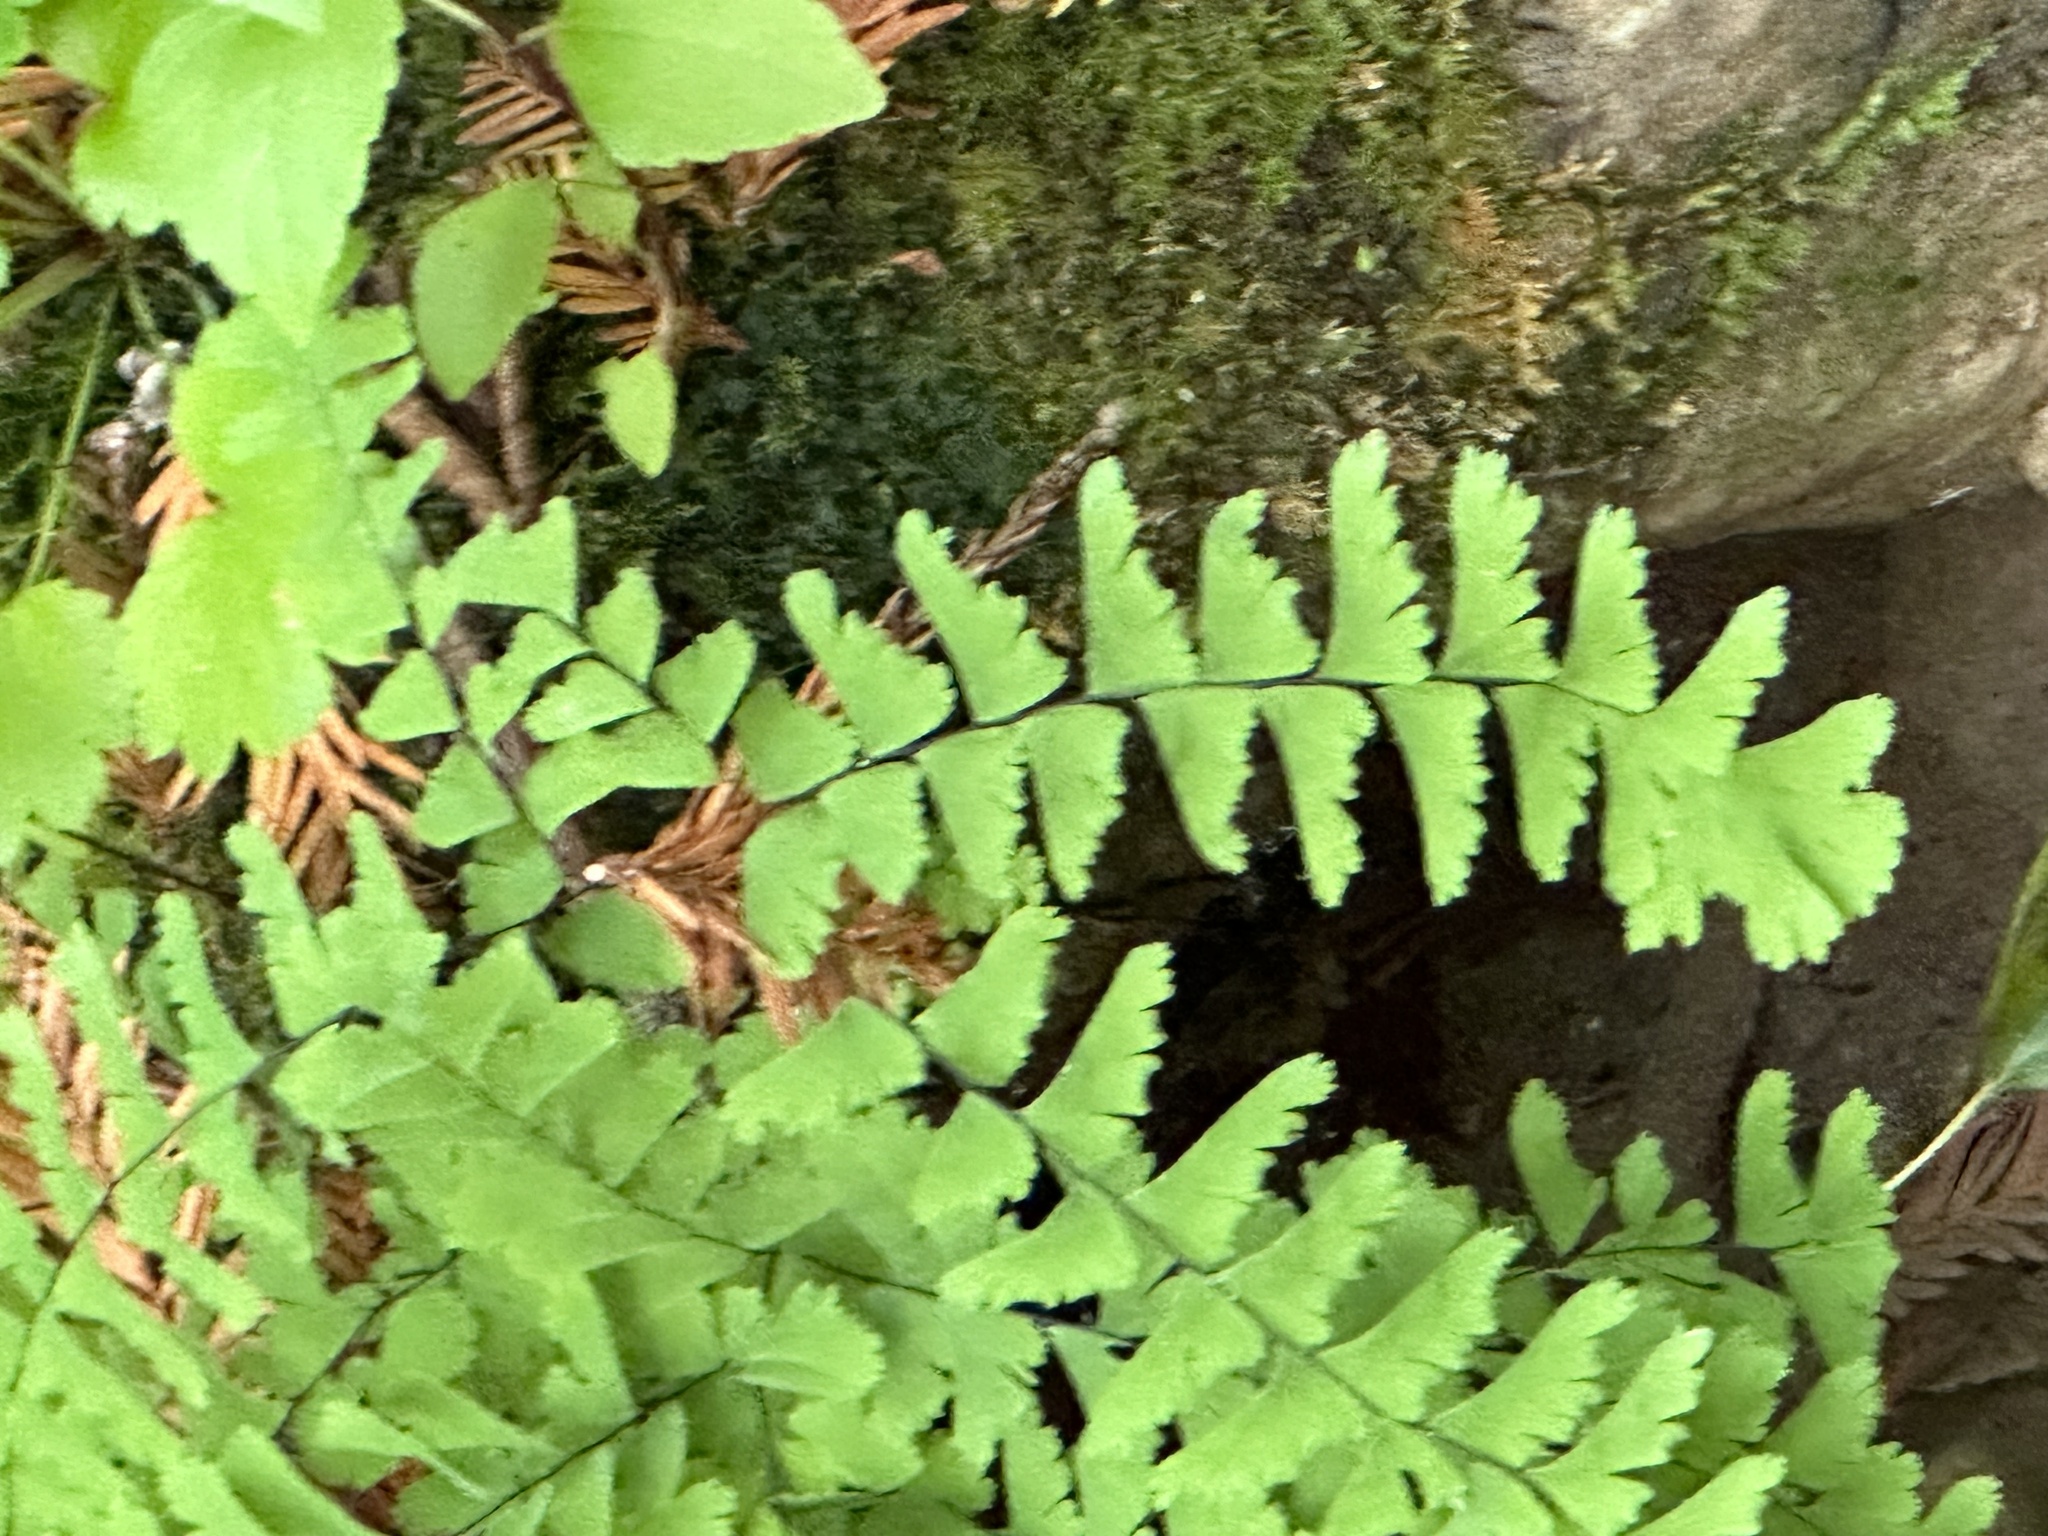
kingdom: Plantae
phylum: Tracheophyta
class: Polypodiopsida
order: Polypodiales
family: Pteridaceae
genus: Adiantum
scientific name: Adiantum aleuticum
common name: Aleutian maidenhair fern
